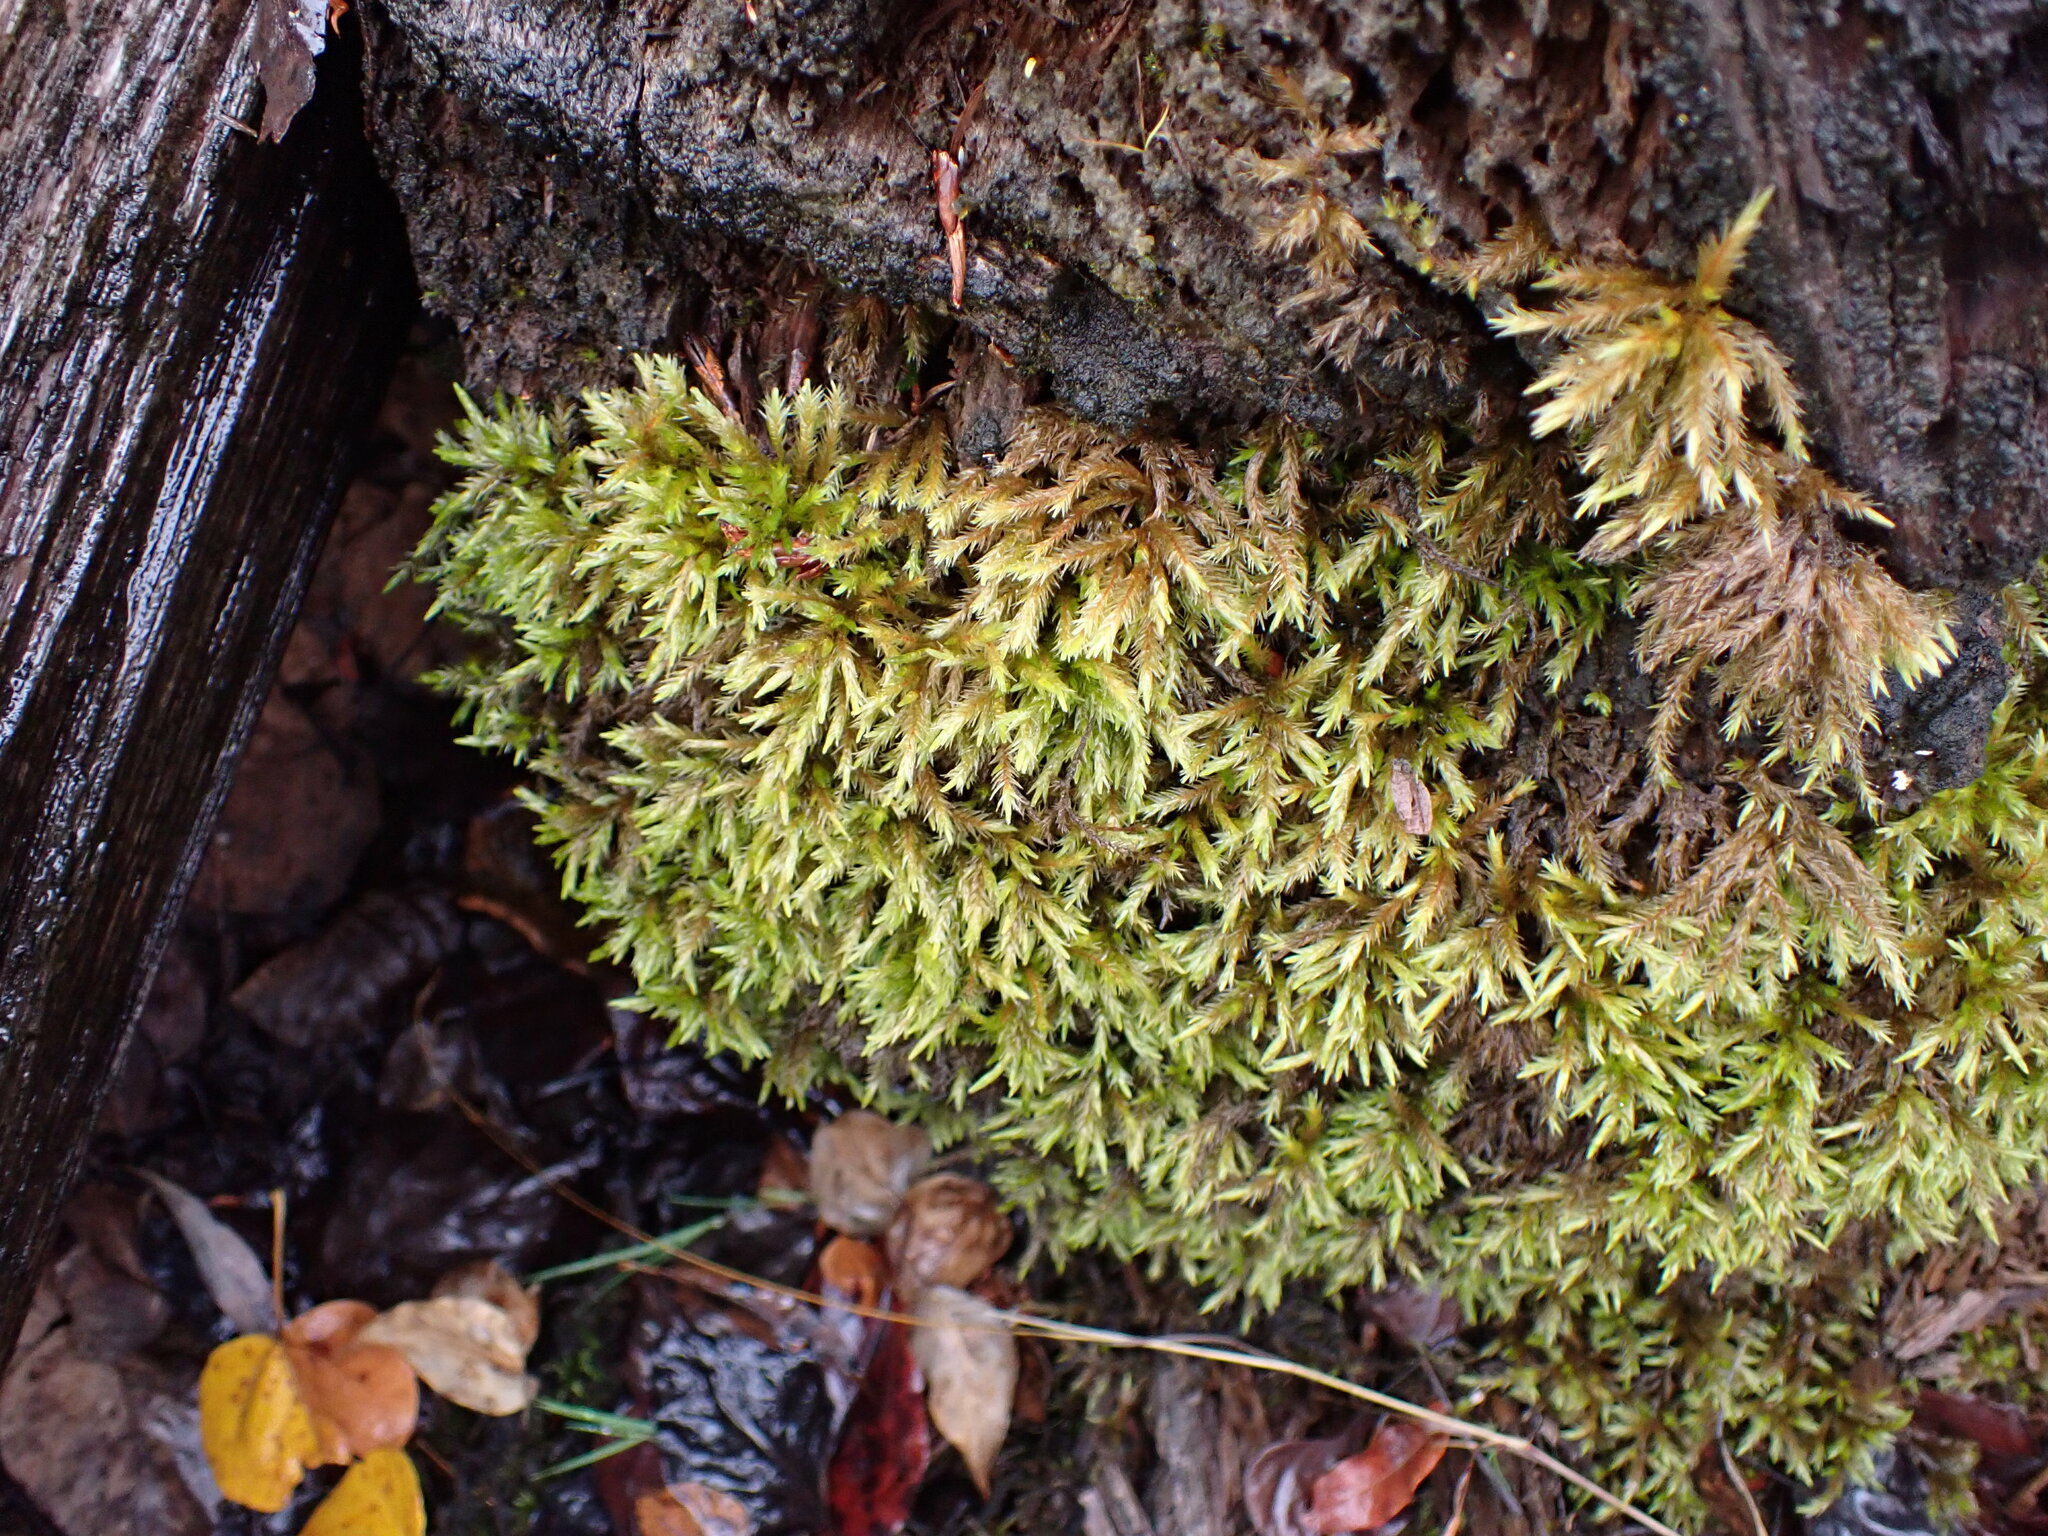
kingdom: Plantae
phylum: Bryophyta
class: Bryopsida
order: Hypnales
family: Climaciaceae
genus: Climacium
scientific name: Climacium dendroides
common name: Northern tree moss
